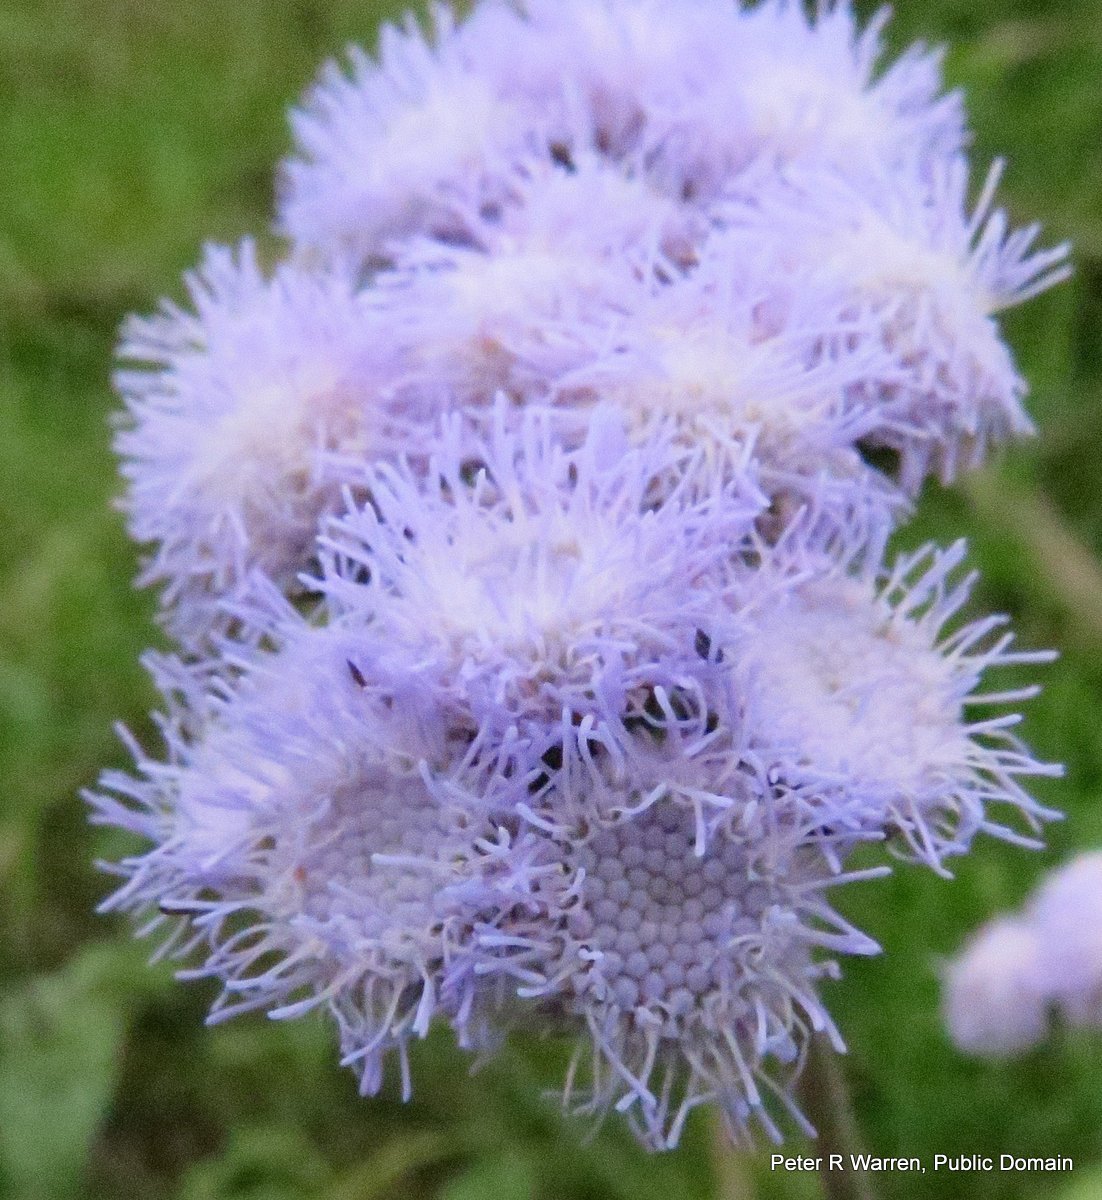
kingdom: Plantae
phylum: Tracheophyta
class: Magnoliopsida
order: Asterales
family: Asteraceae
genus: Ageratum
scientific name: Ageratum houstonianum
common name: Bluemink
